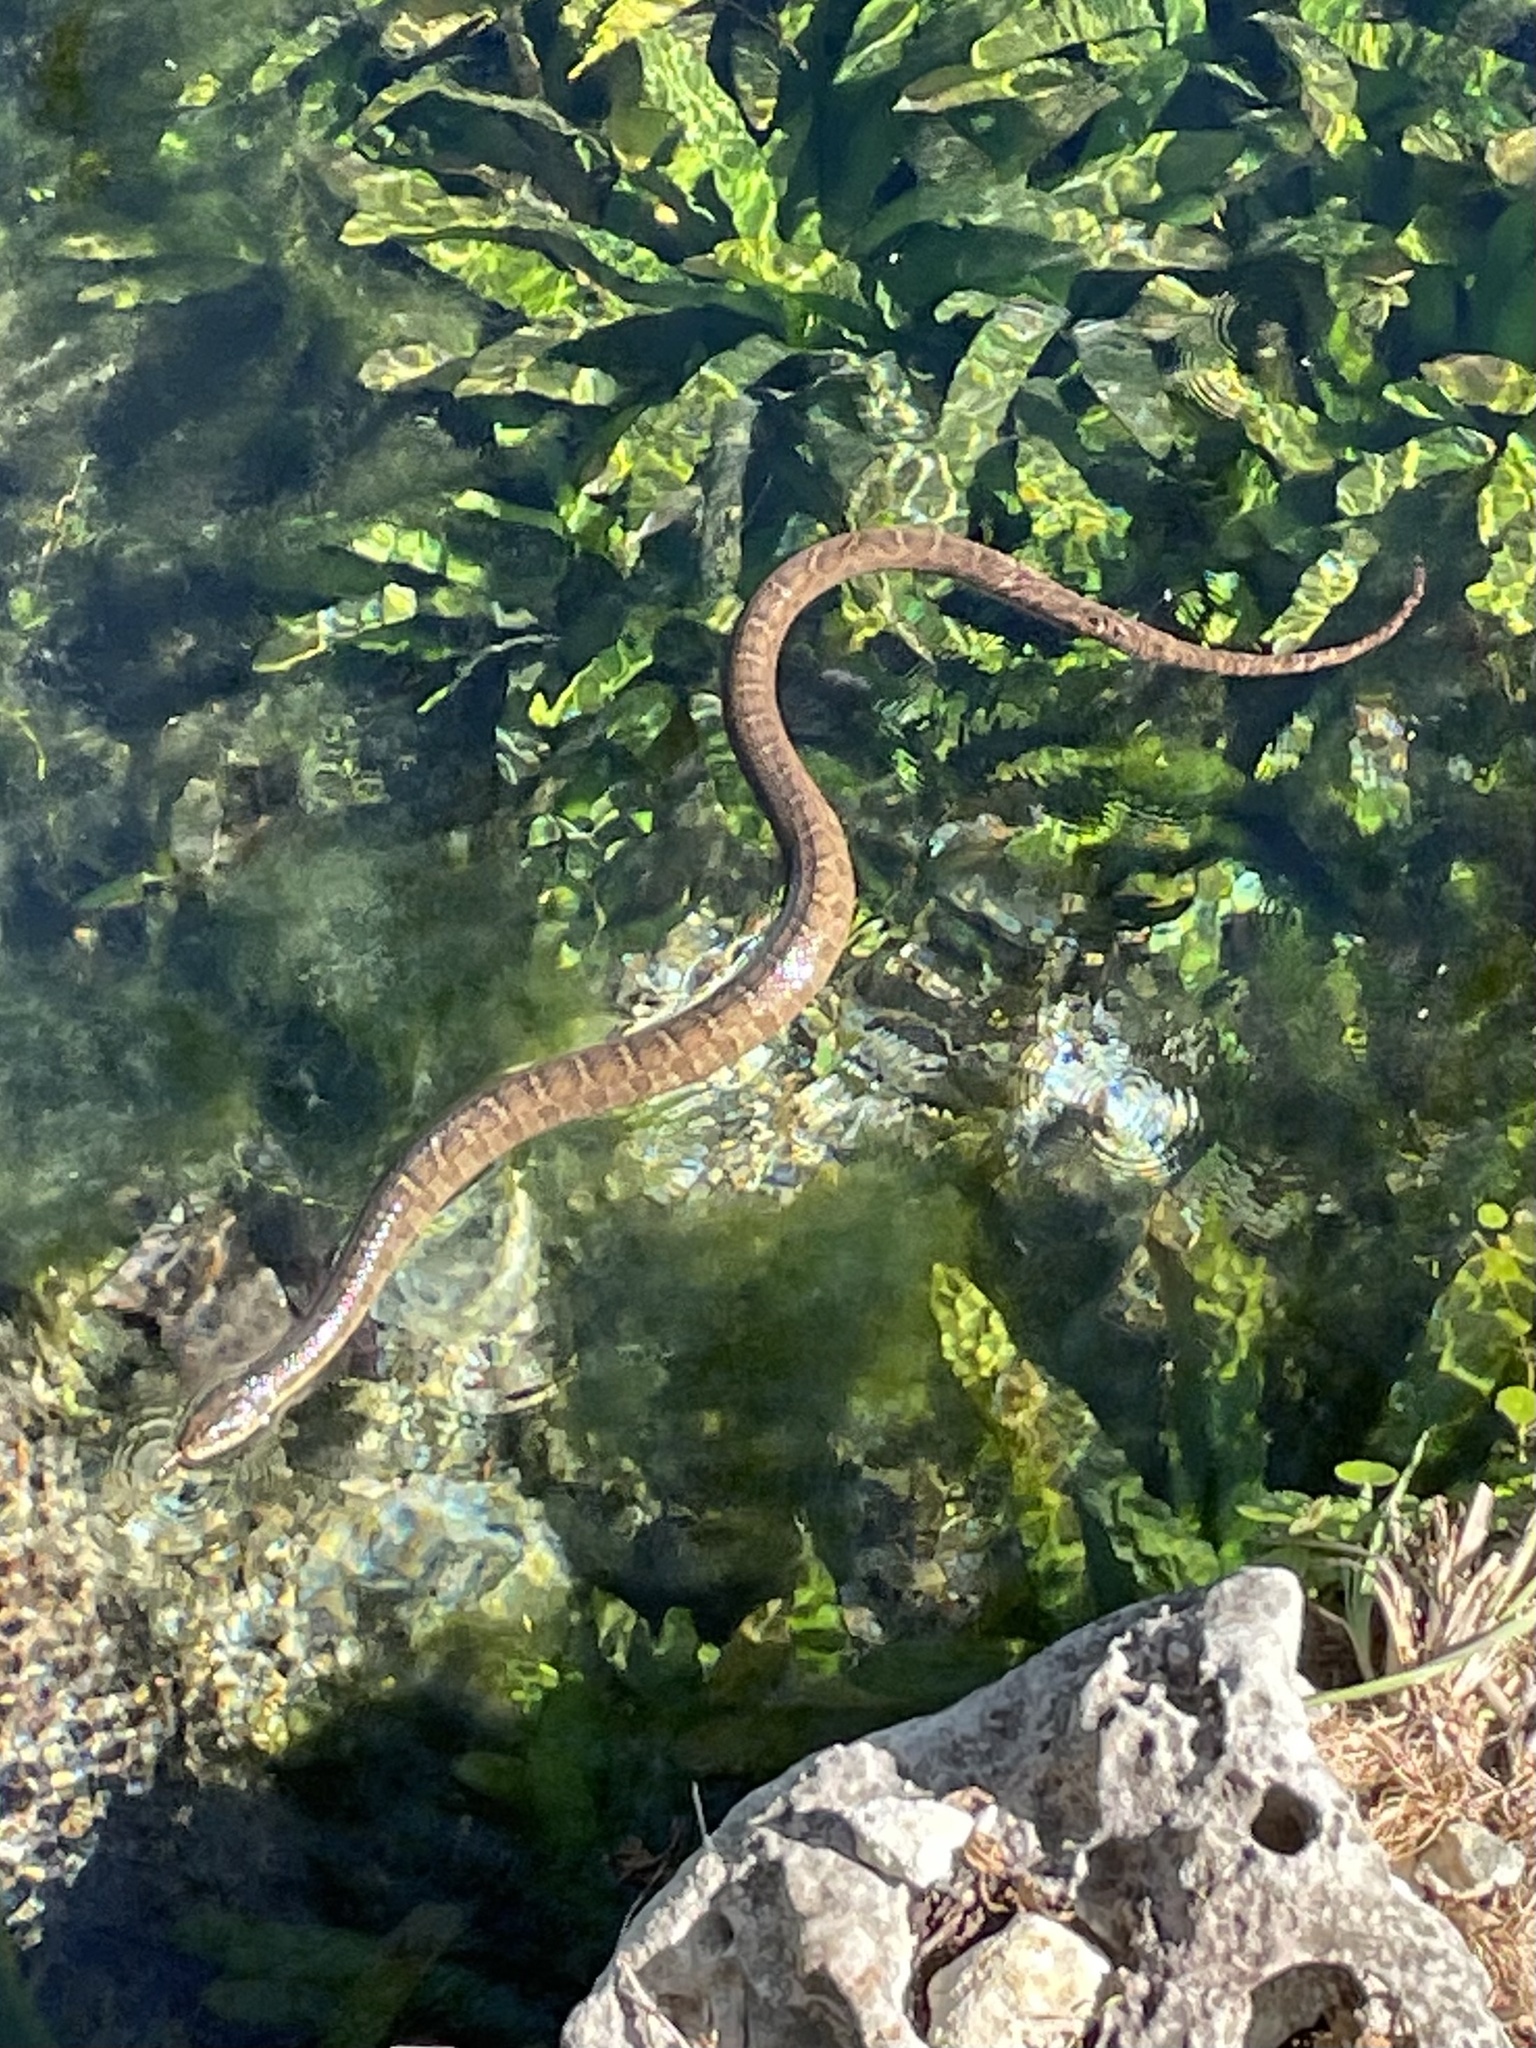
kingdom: Animalia
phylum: Chordata
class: Squamata
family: Colubridae
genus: Nerodia
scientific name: Nerodia erythrogaster
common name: Plainbelly water snake
